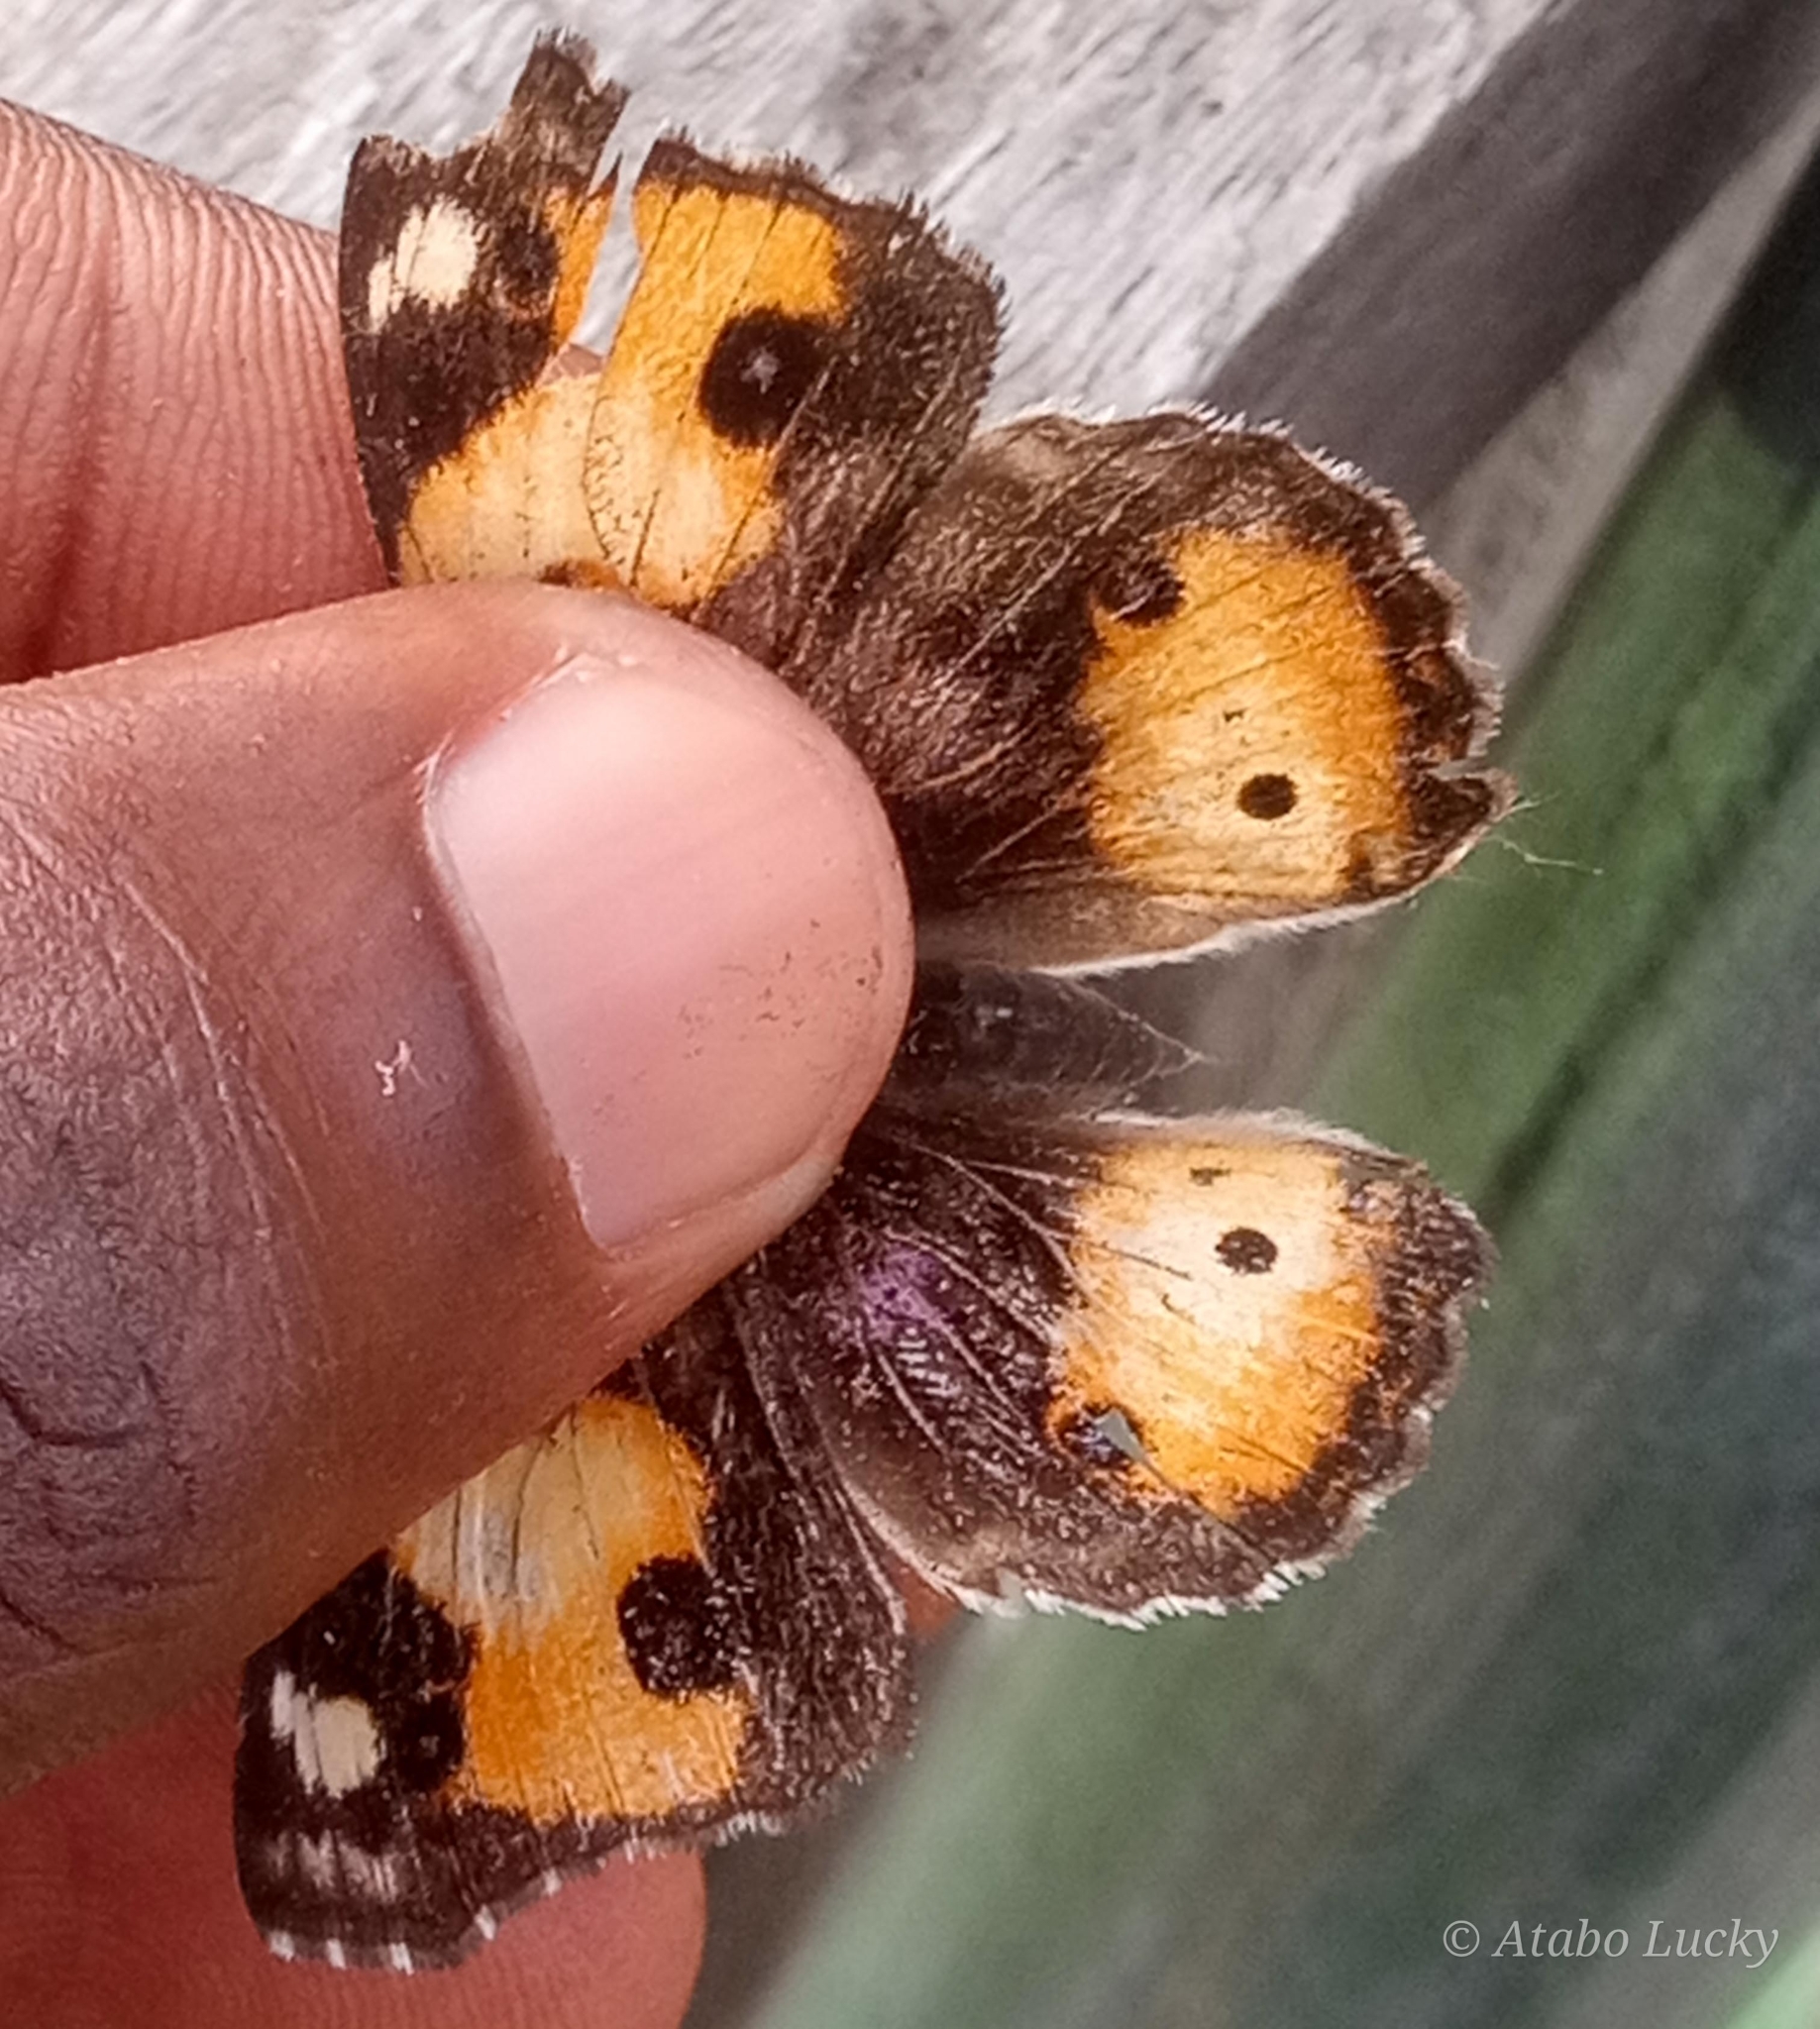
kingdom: Animalia
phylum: Arthropoda
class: Insecta
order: Lepidoptera
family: Nymphalidae
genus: Junonia
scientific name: Junonia hierta
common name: Yellow pansy
